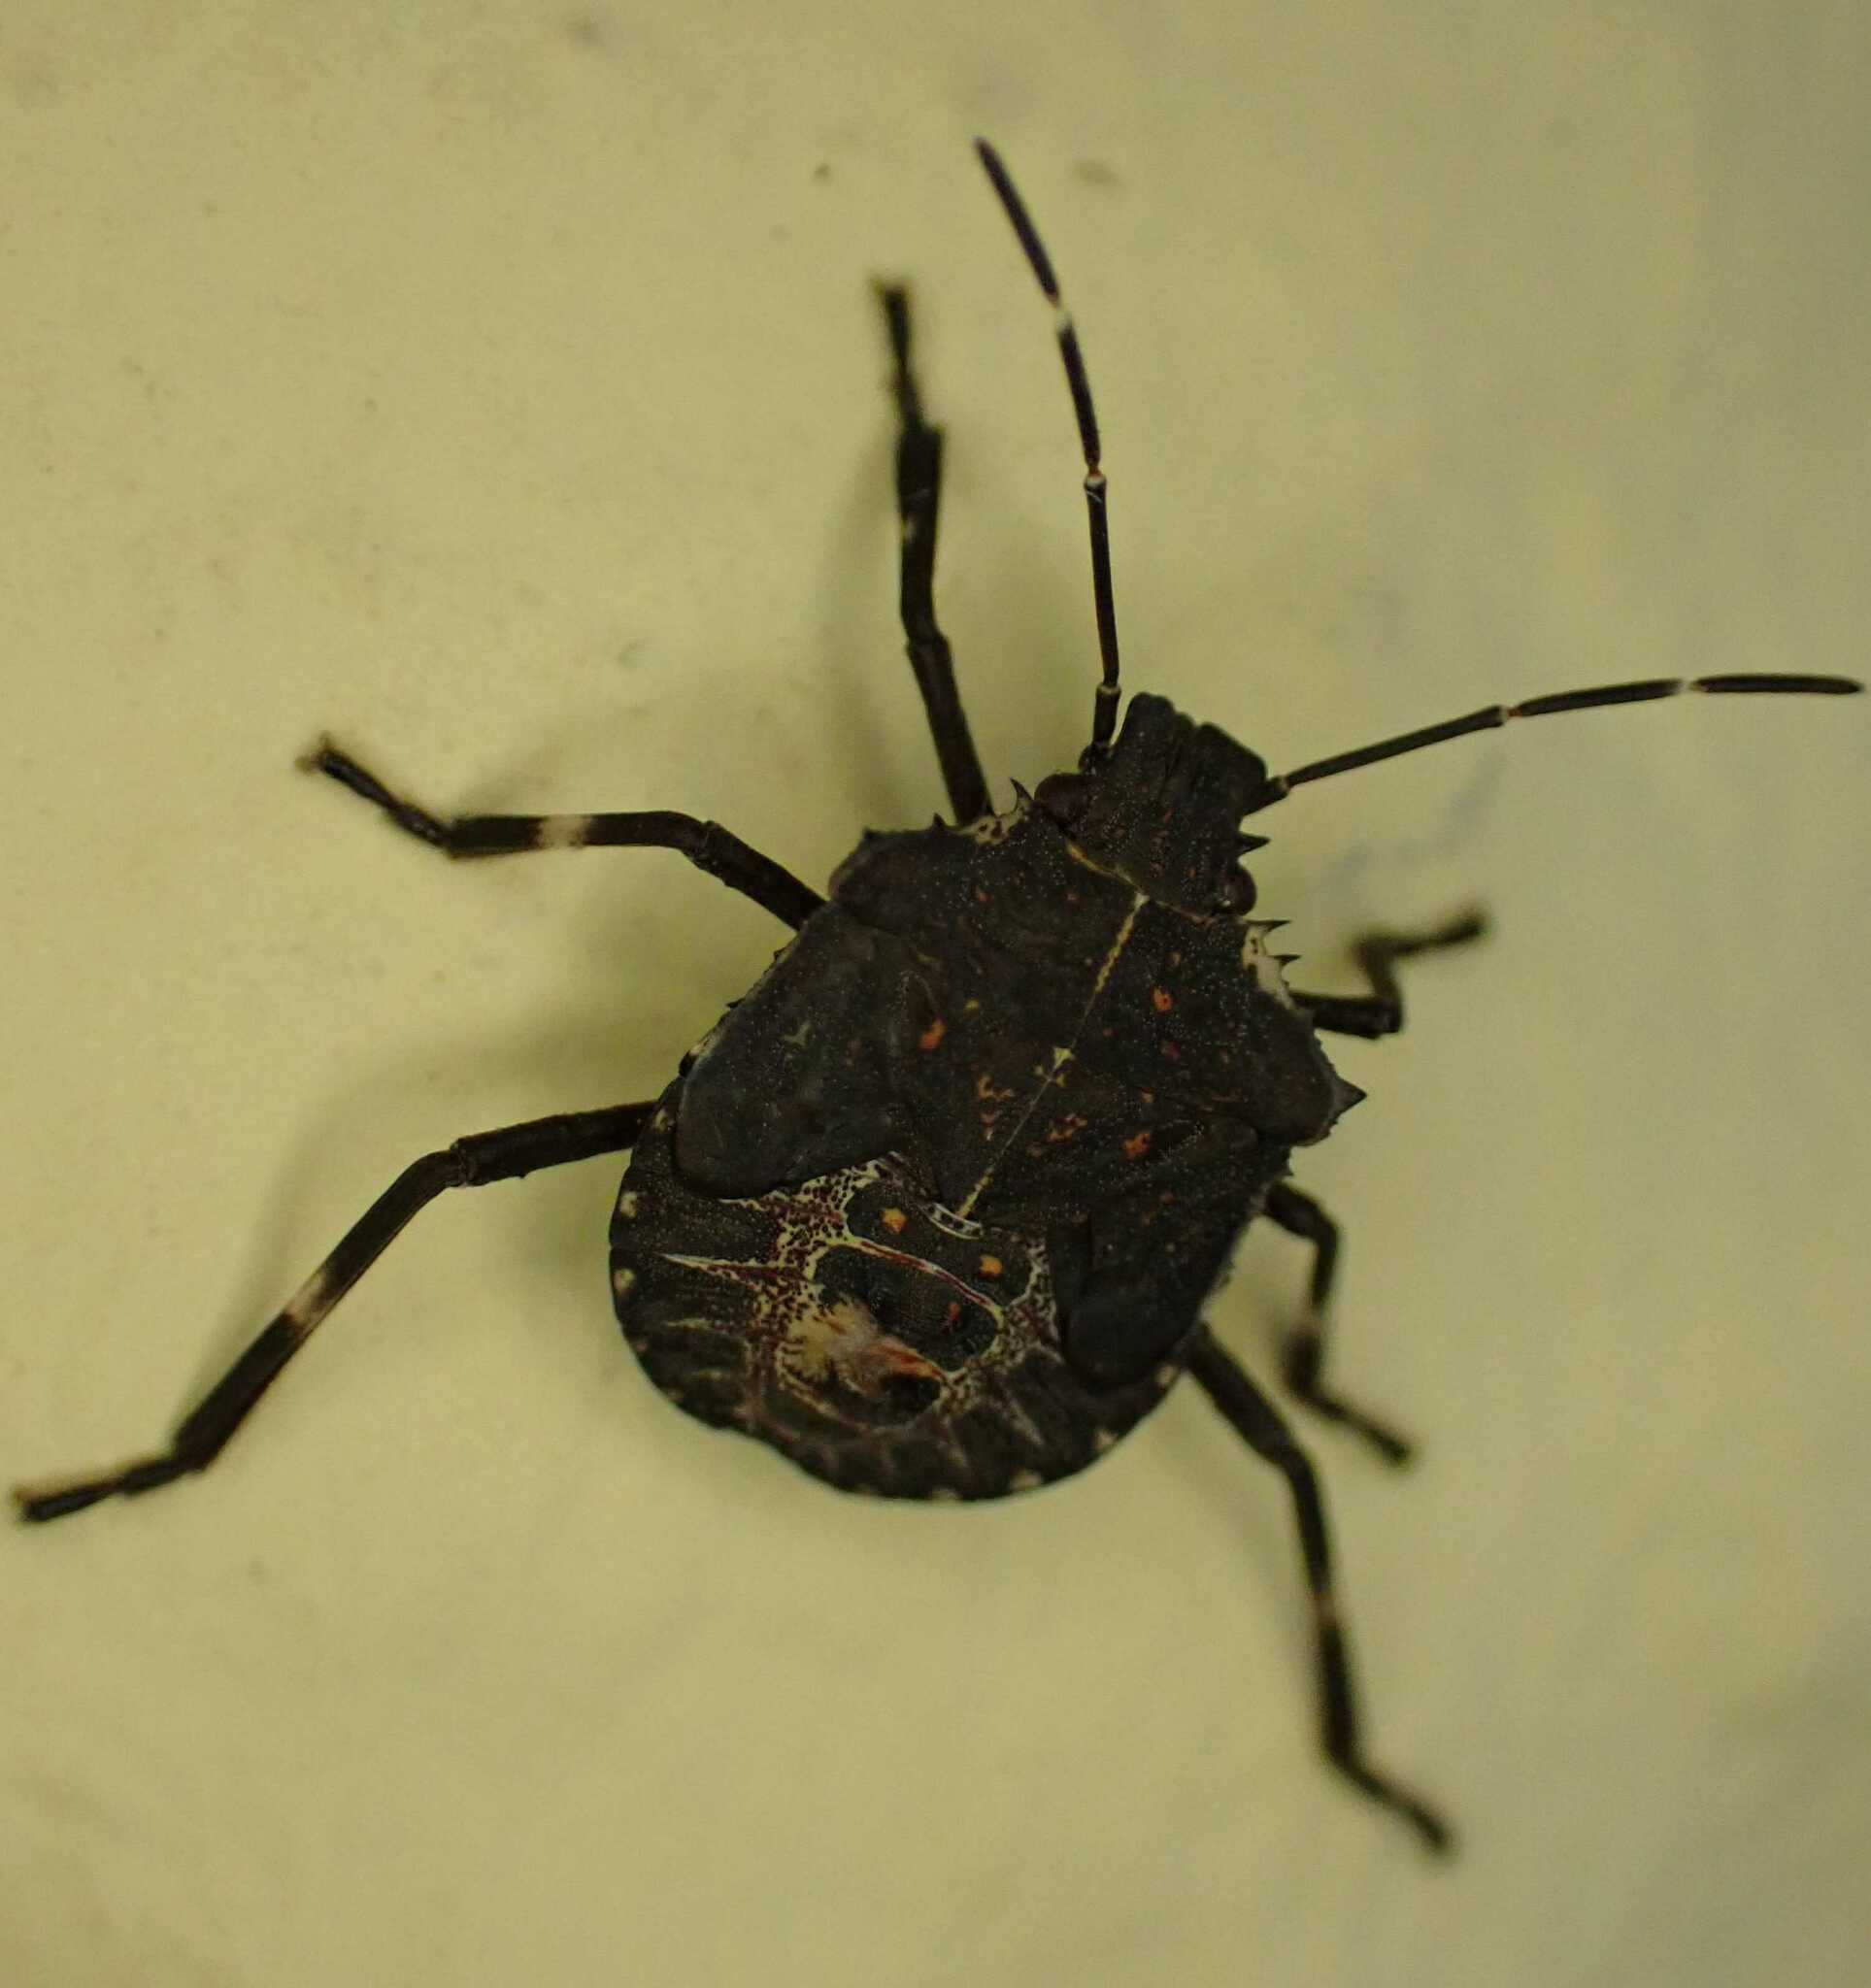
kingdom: Animalia
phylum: Arthropoda
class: Insecta
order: Hemiptera
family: Pentatomidae
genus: Halyomorpha
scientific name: Halyomorpha halys
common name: Brown marmorated stink bug
